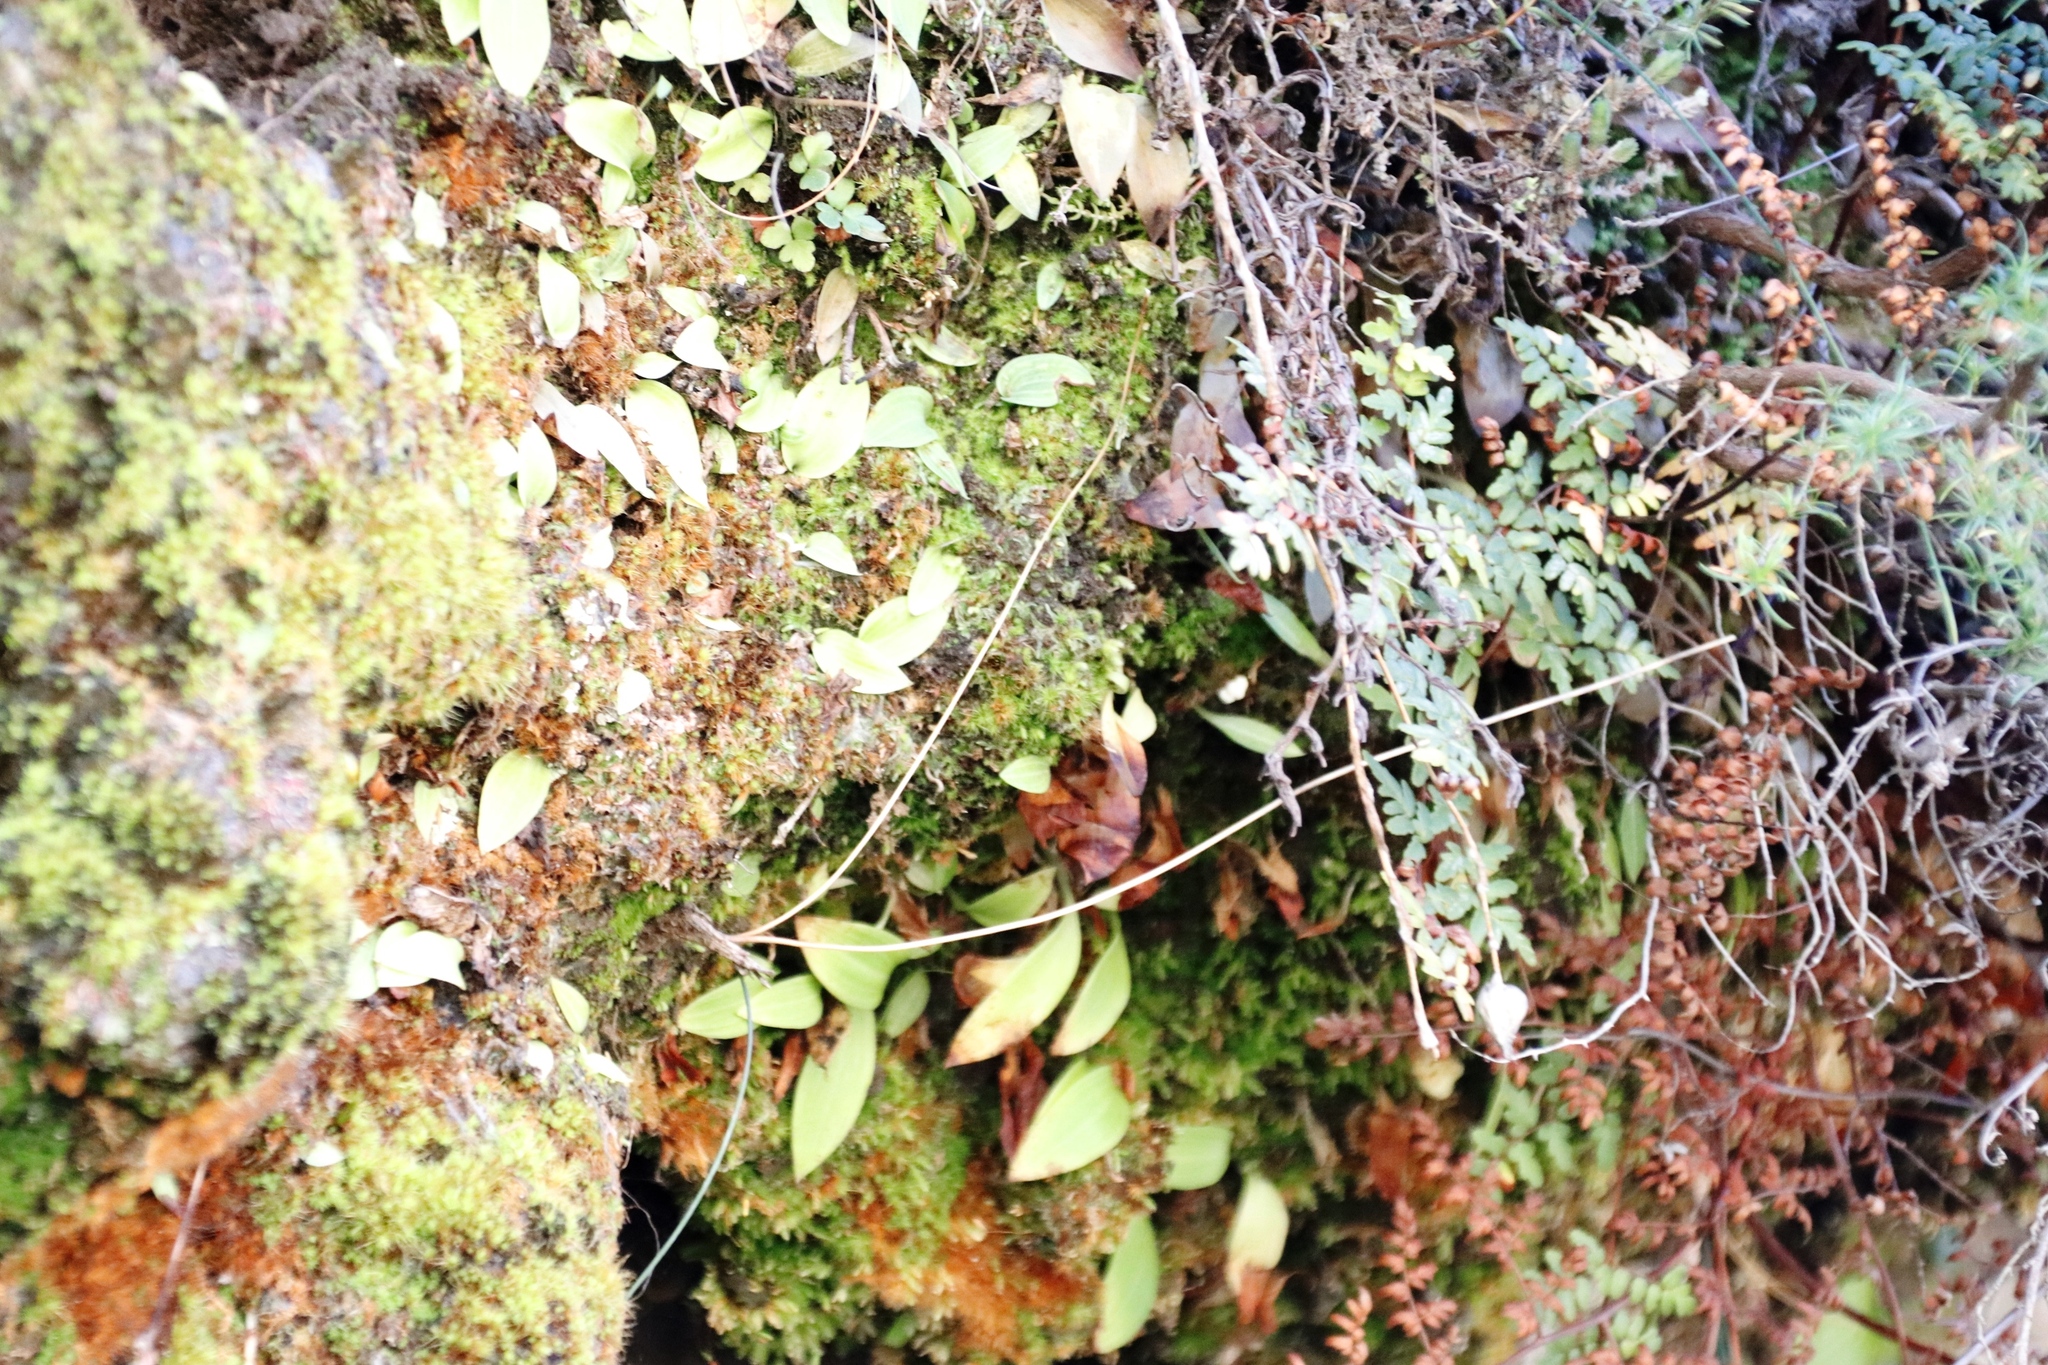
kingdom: Plantae
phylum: Tracheophyta
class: Liliopsida
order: Asparagales
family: Orchidaceae
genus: Dracomonticola
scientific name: Dracomonticola virginea
